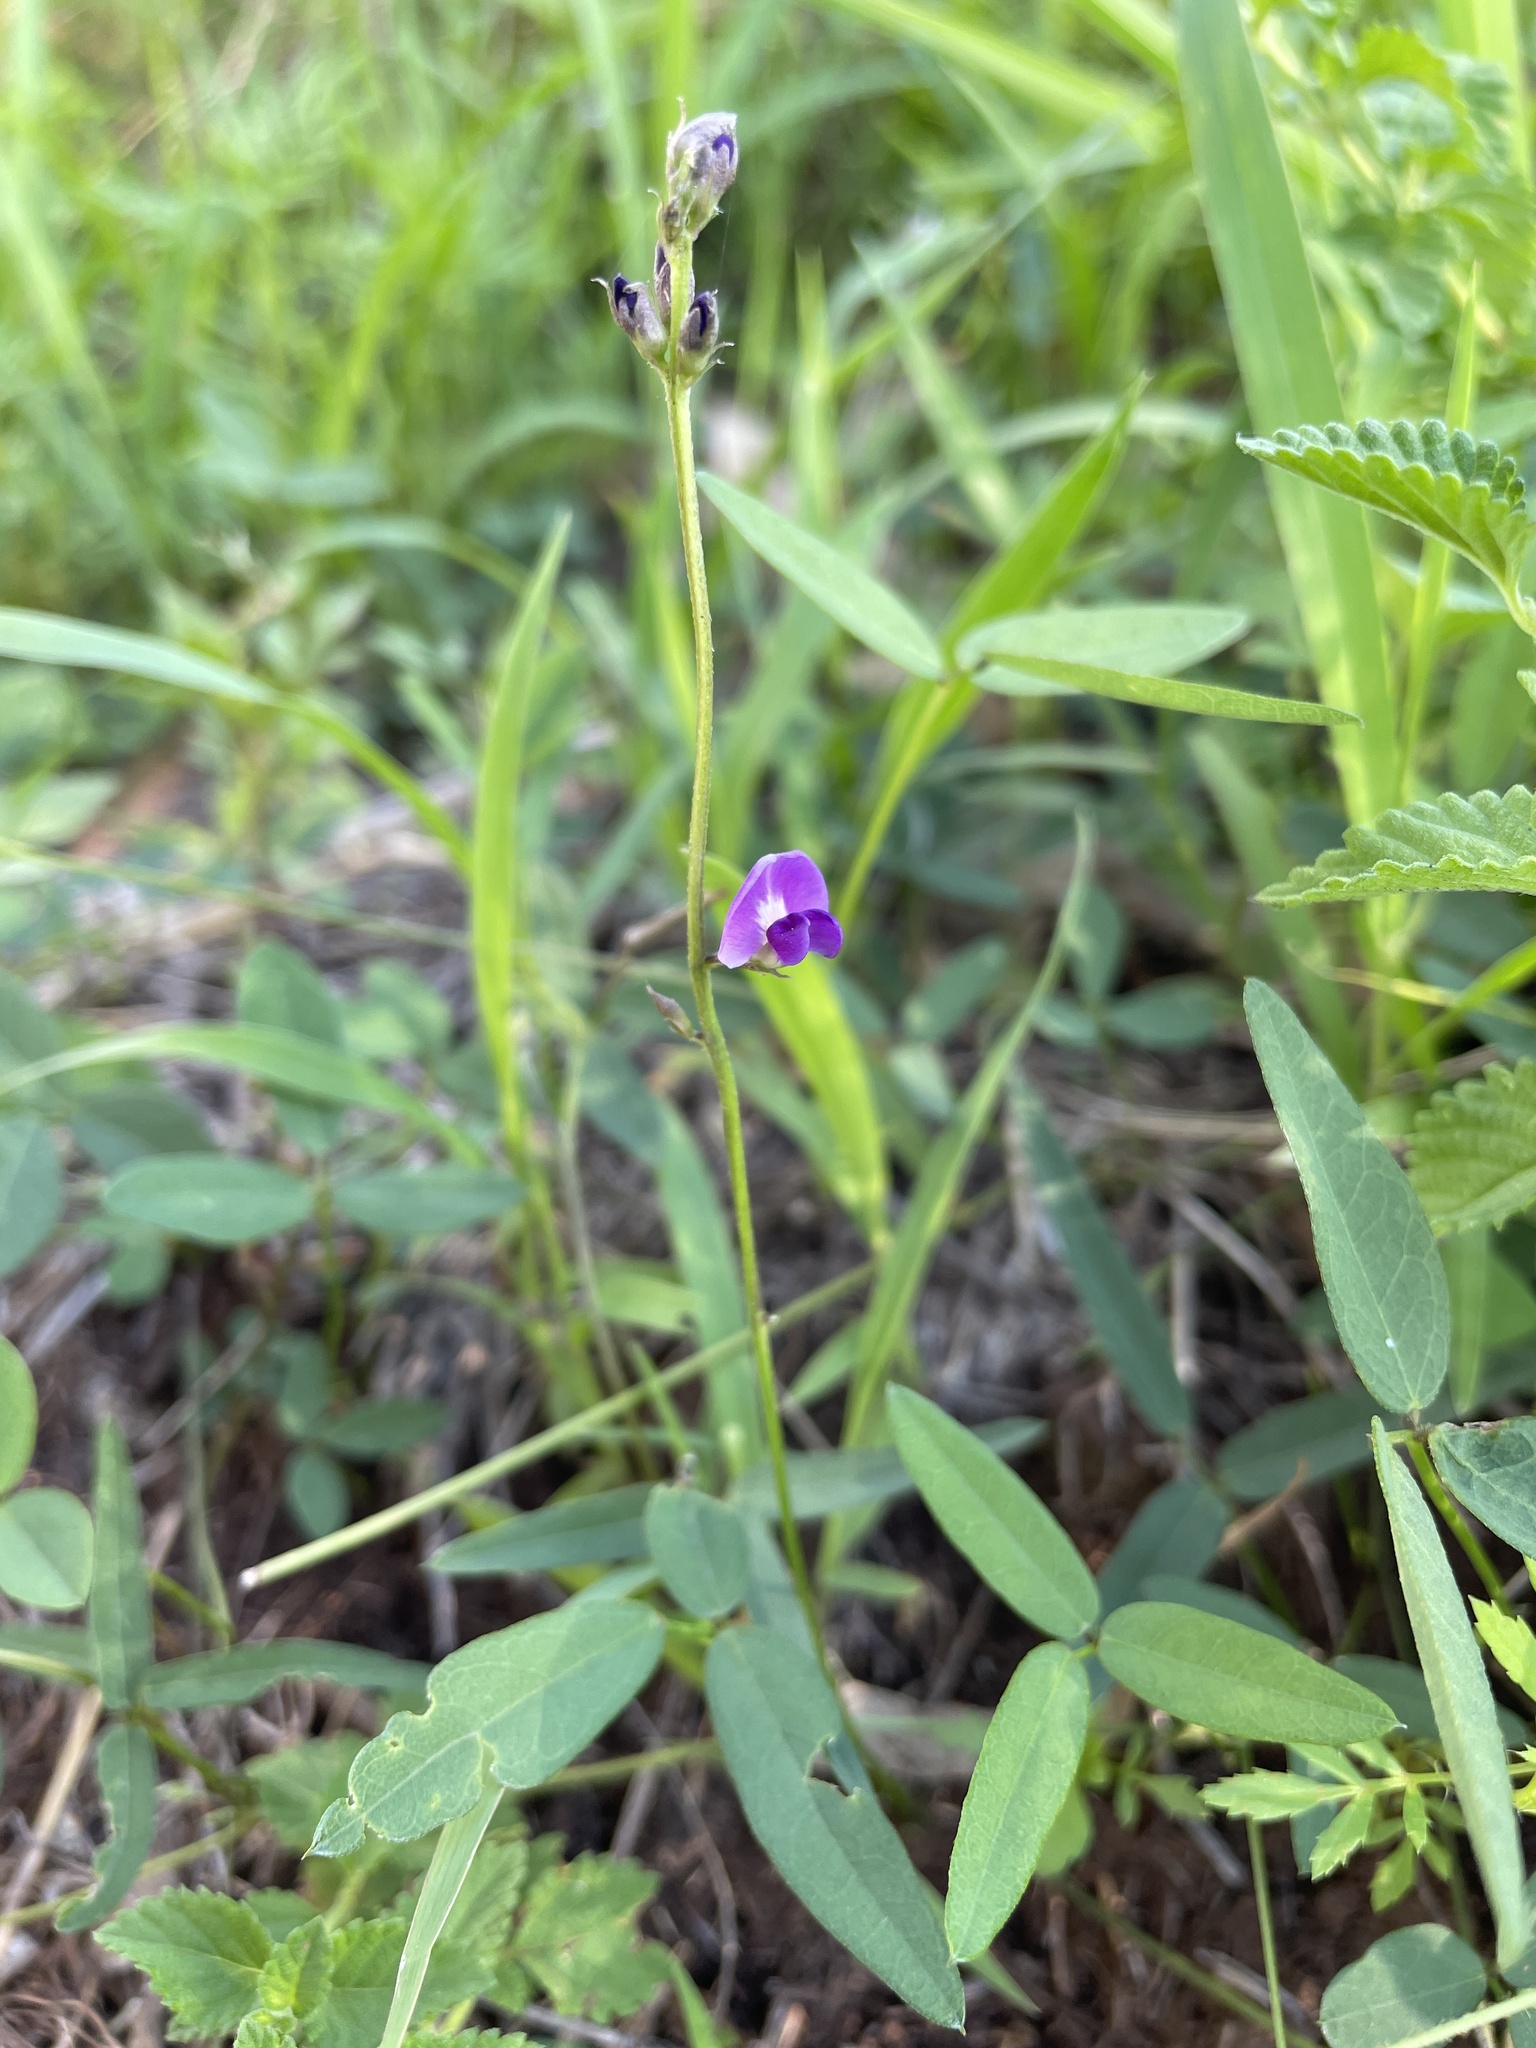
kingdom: Plantae
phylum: Tracheophyta
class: Magnoliopsida
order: Fabales
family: Fabaceae
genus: Glycine
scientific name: Glycine tabacina
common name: Pea glycine
